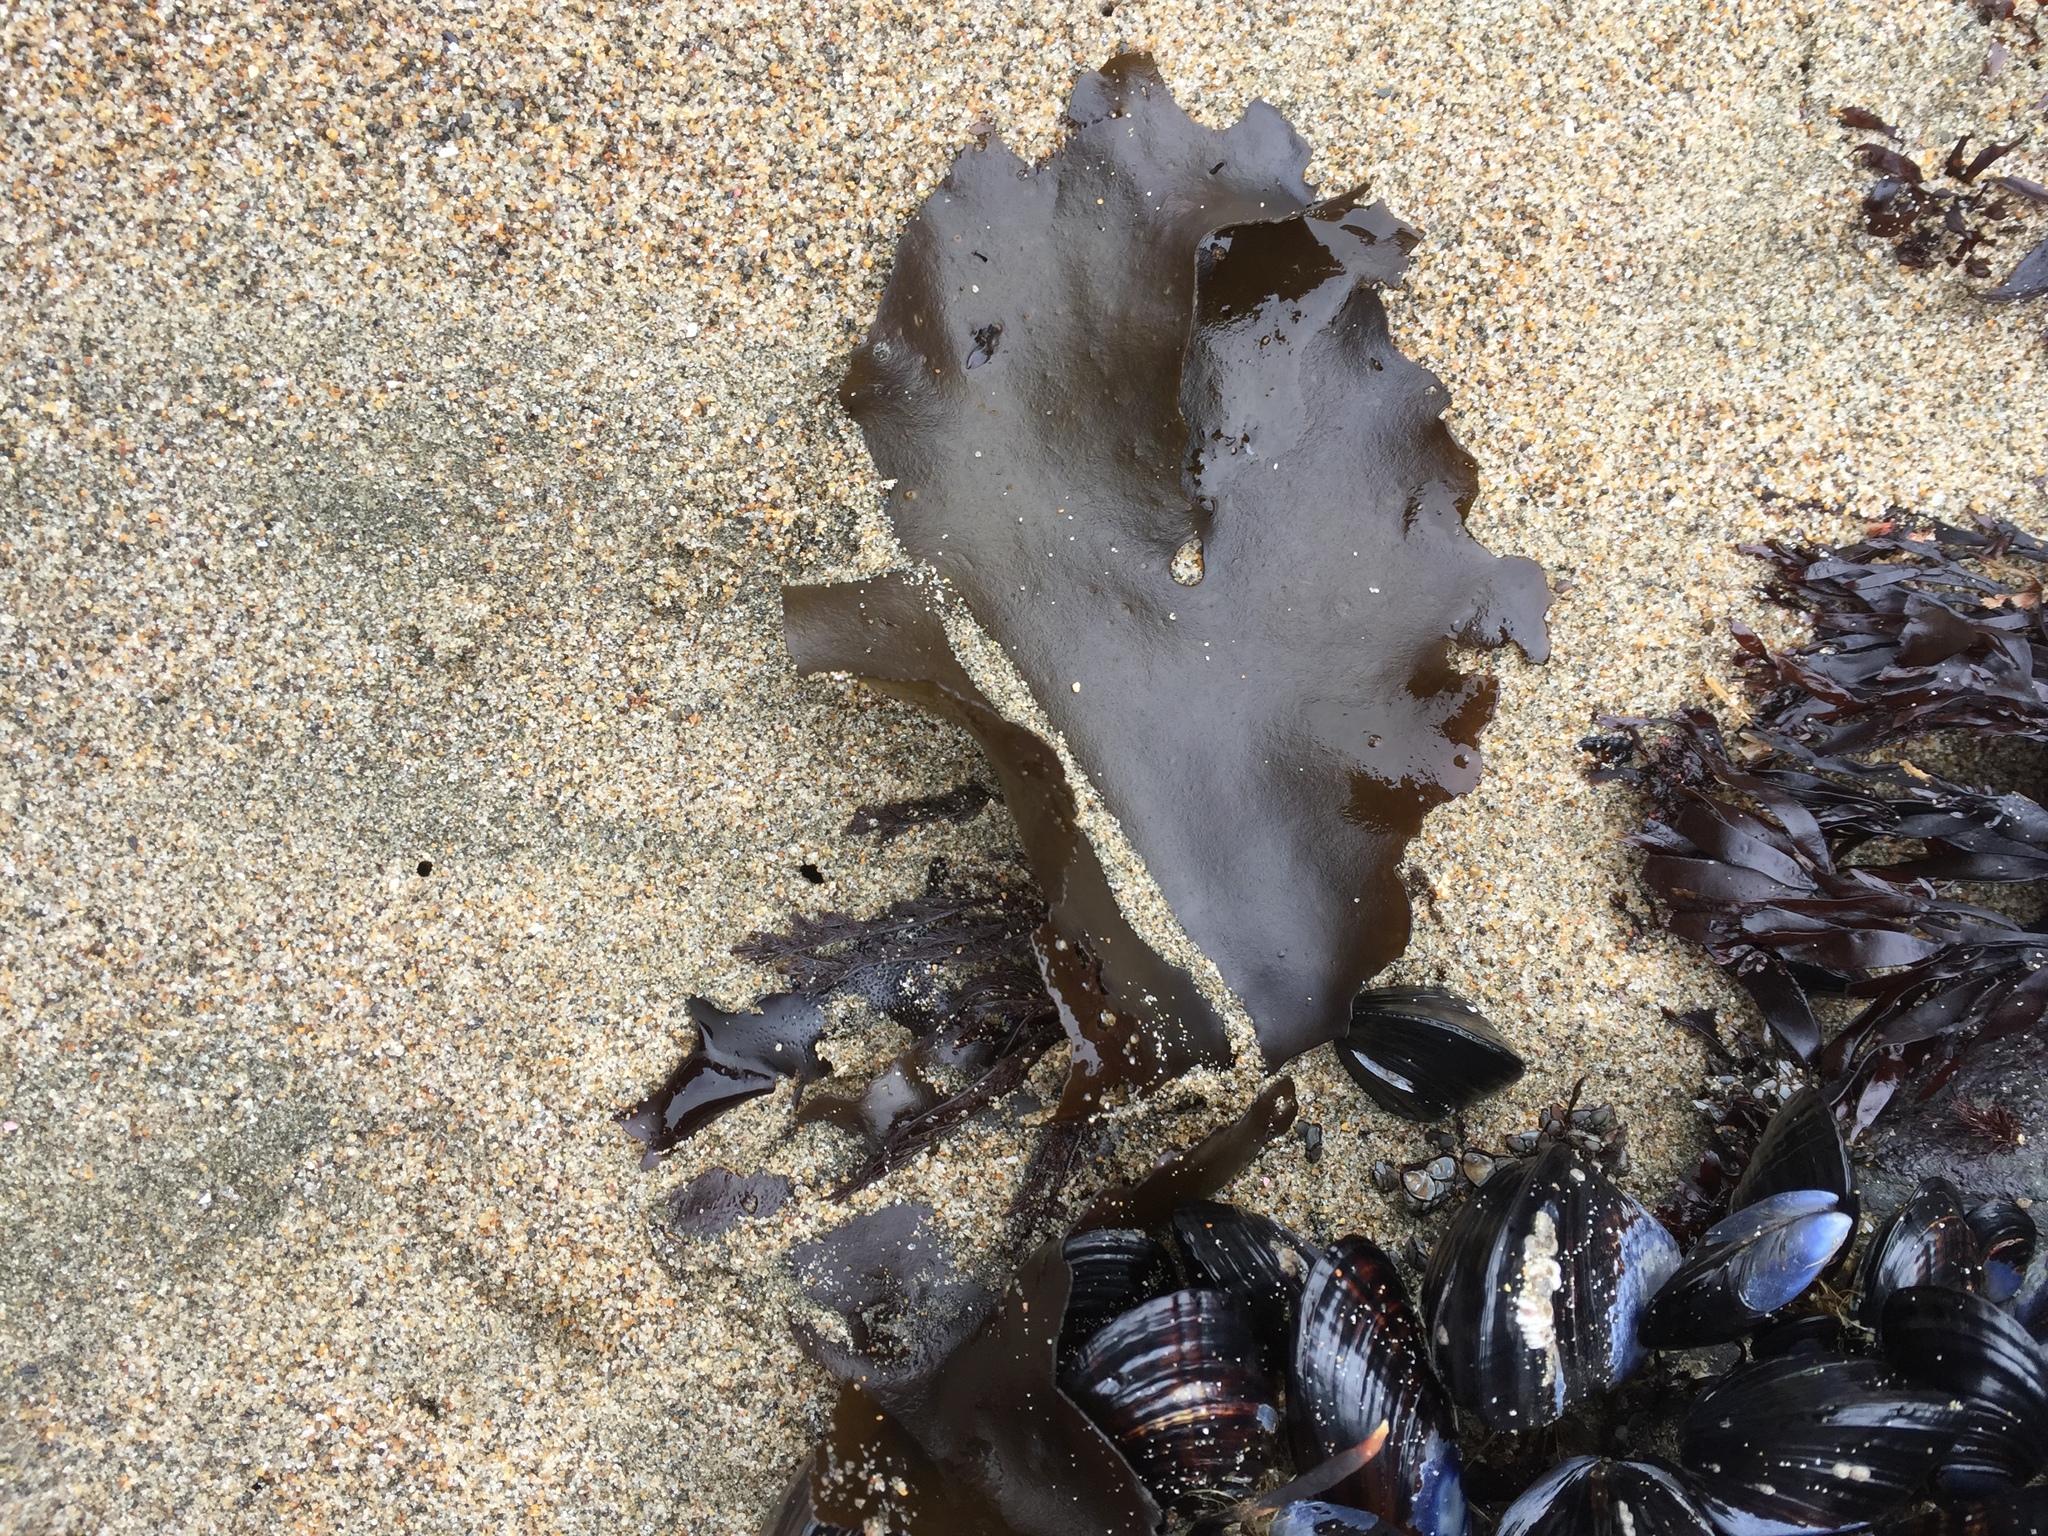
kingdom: Plantae
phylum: Rhodophyta
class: Florideophyceae
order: Gigartinales
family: Gigartinaceae
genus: Mazzaella
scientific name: Mazzaella flaccida
